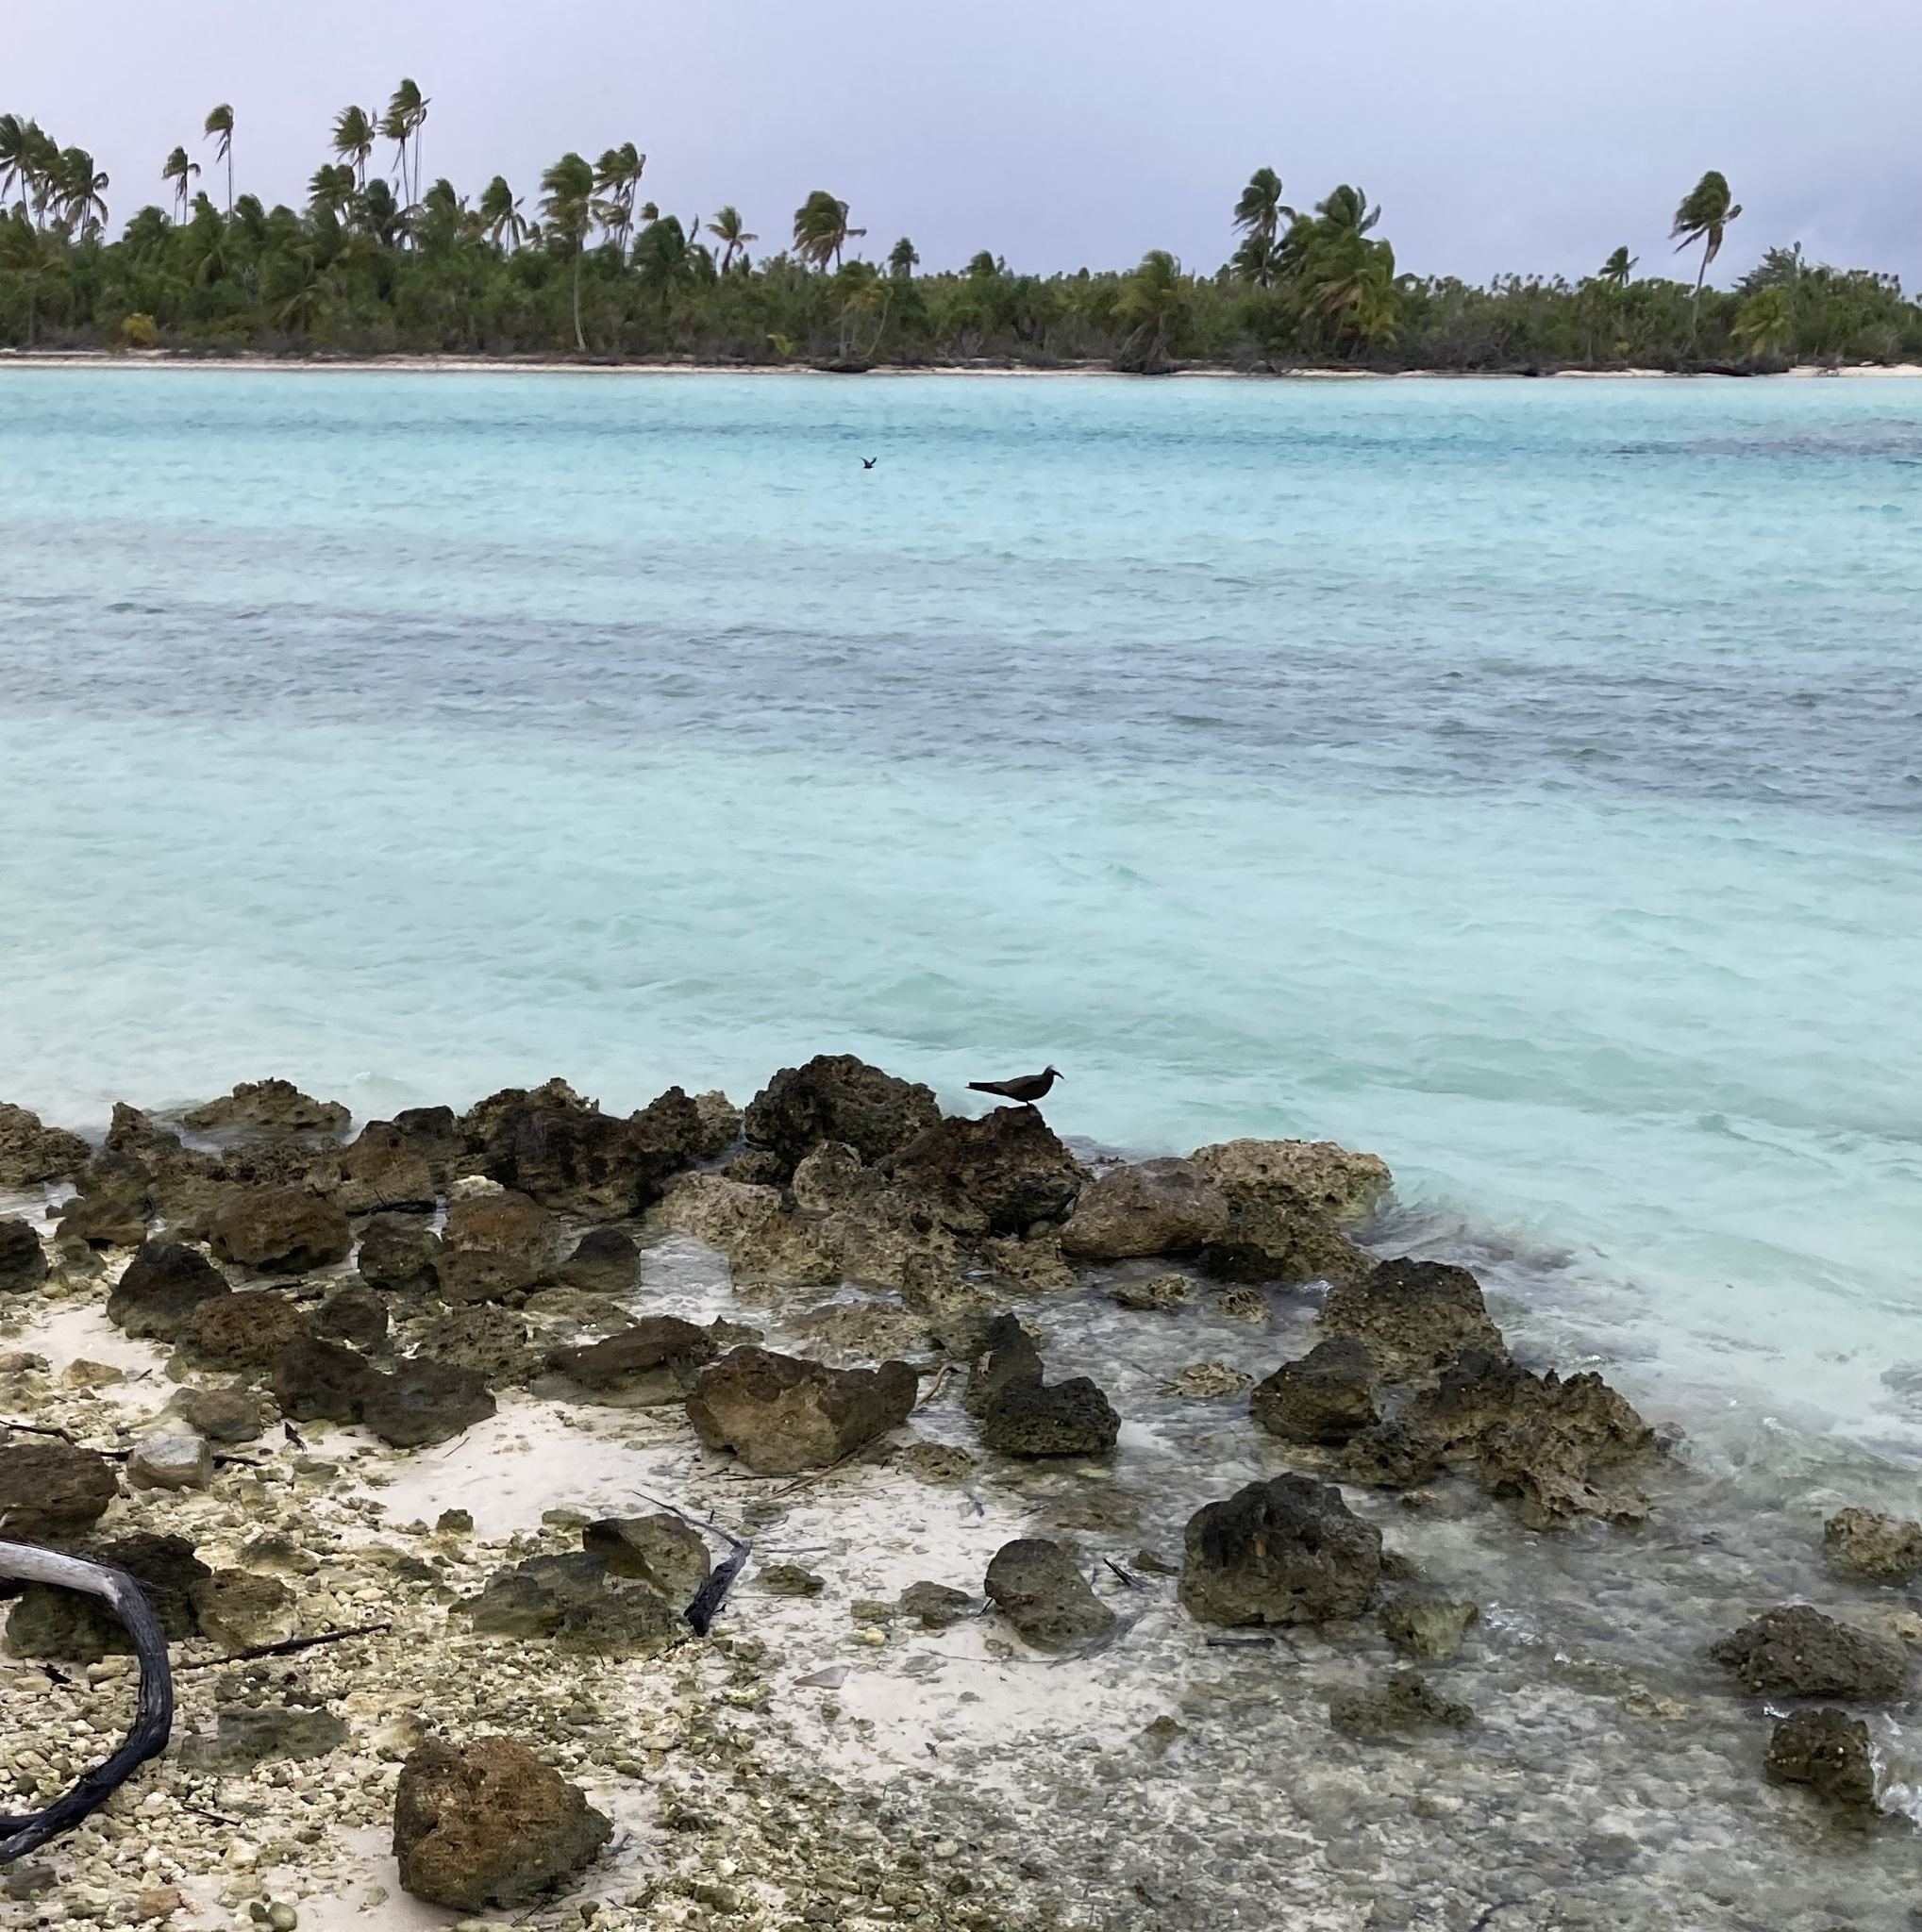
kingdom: Animalia
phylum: Chordata
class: Aves
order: Charadriiformes
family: Laridae
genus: Anous
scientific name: Anous stolidus
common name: Brown noddy
